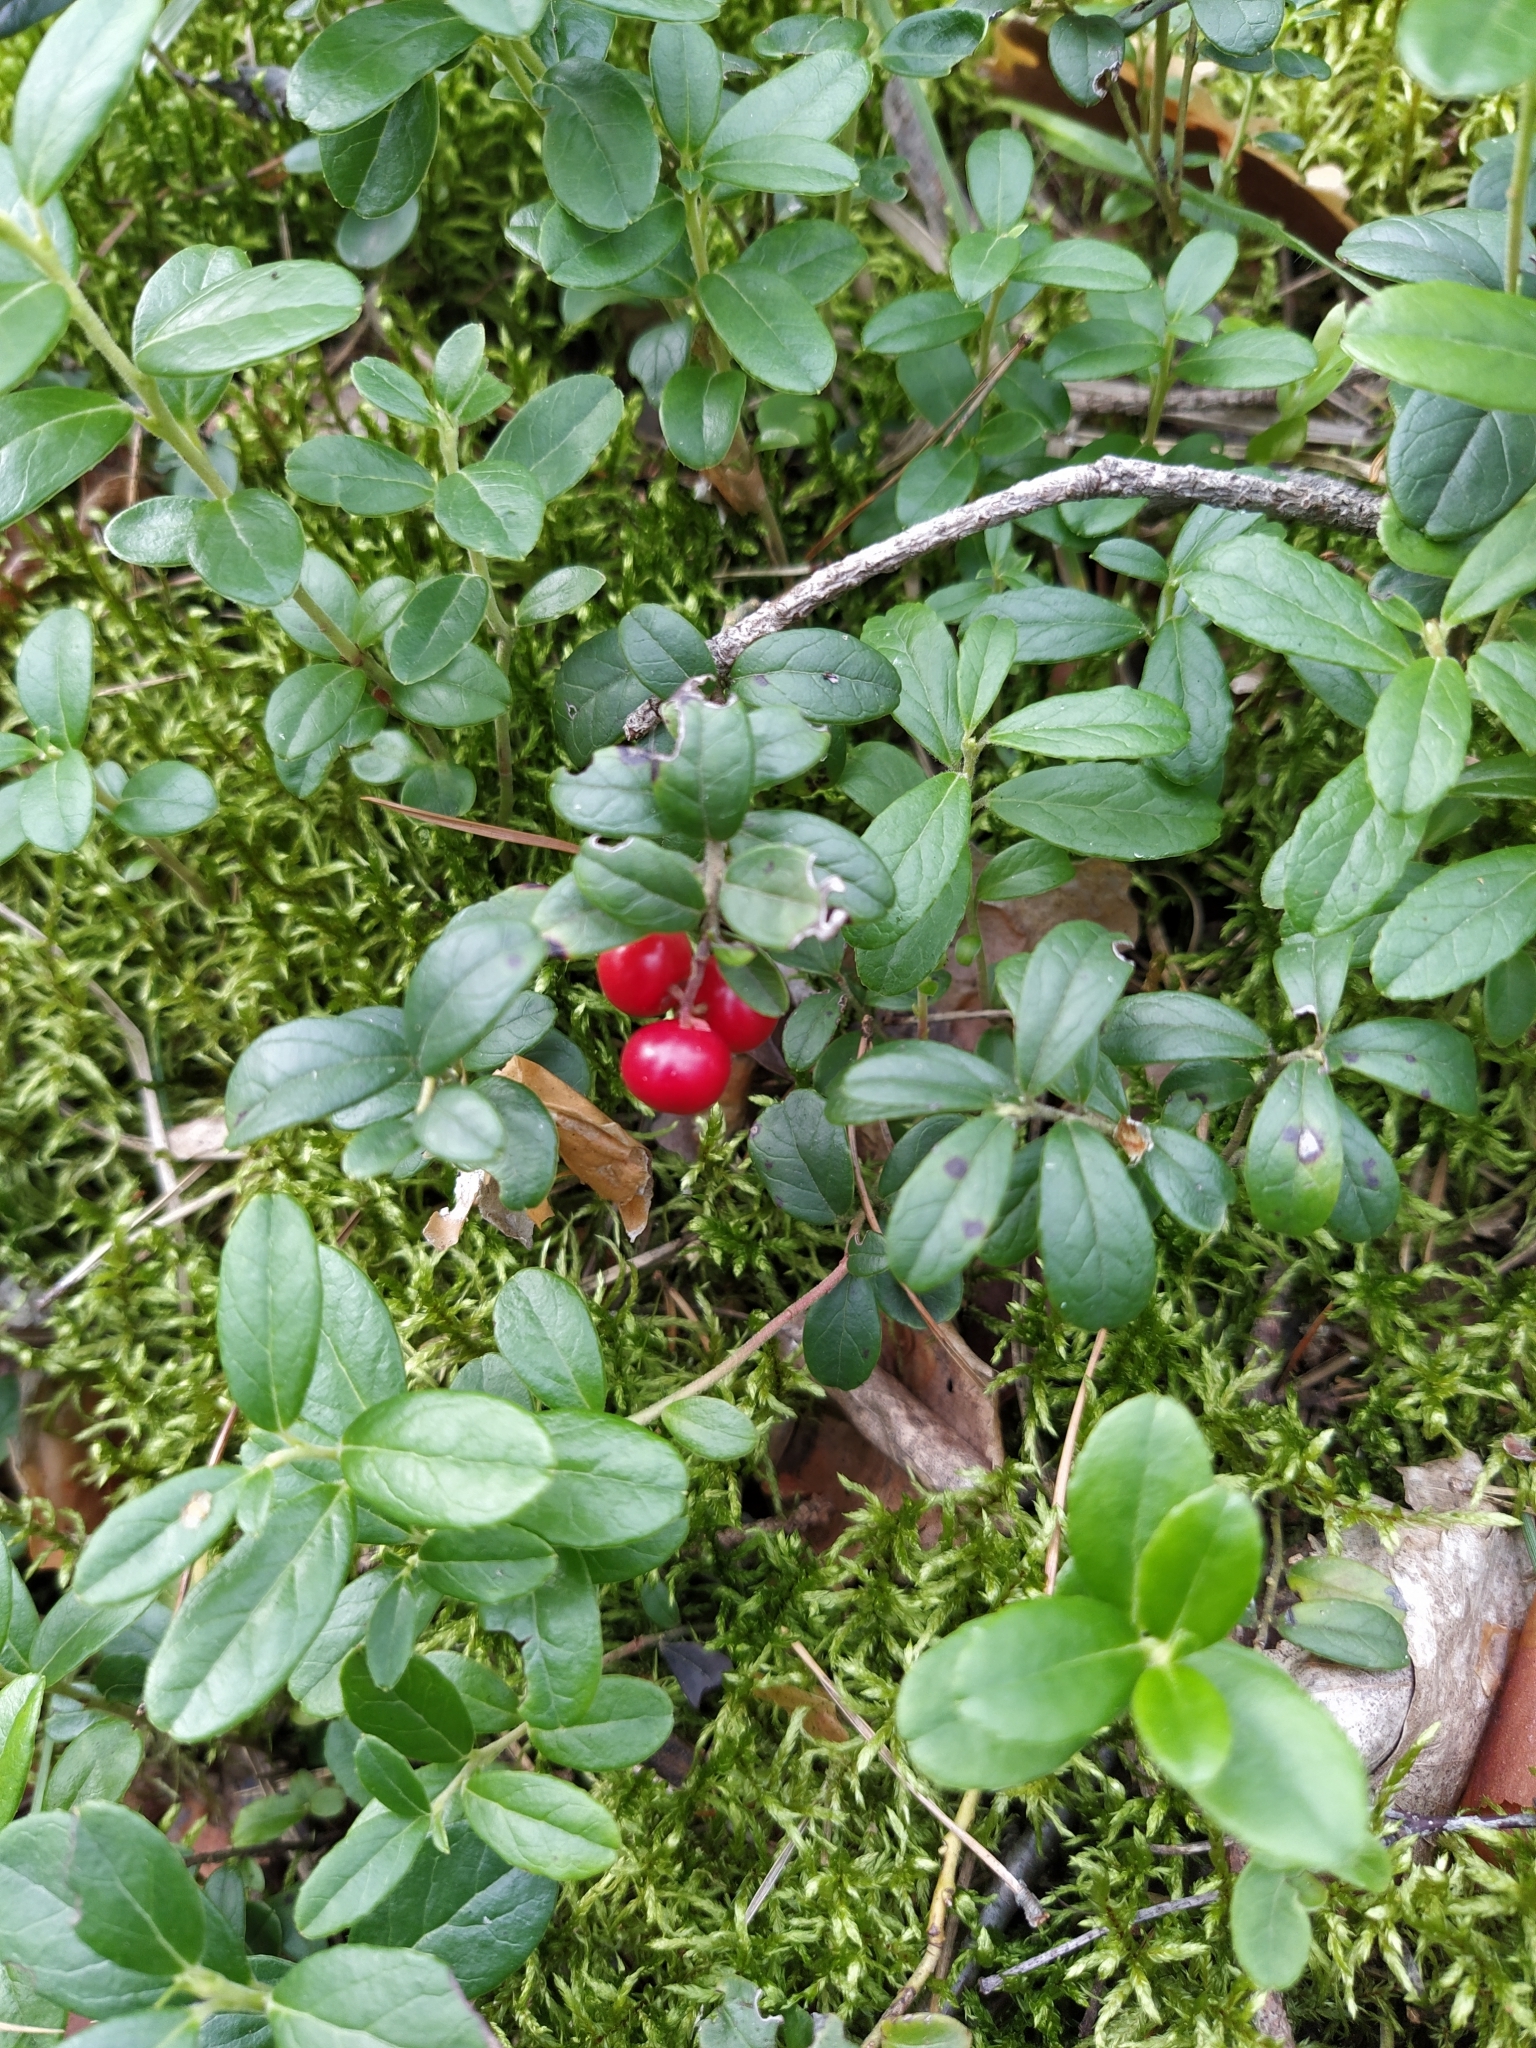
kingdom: Plantae
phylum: Tracheophyta
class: Magnoliopsida
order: Ericales
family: Ericaceae
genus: Vaccinium
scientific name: Vaccinium vitis-idaea
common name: Cowberry
